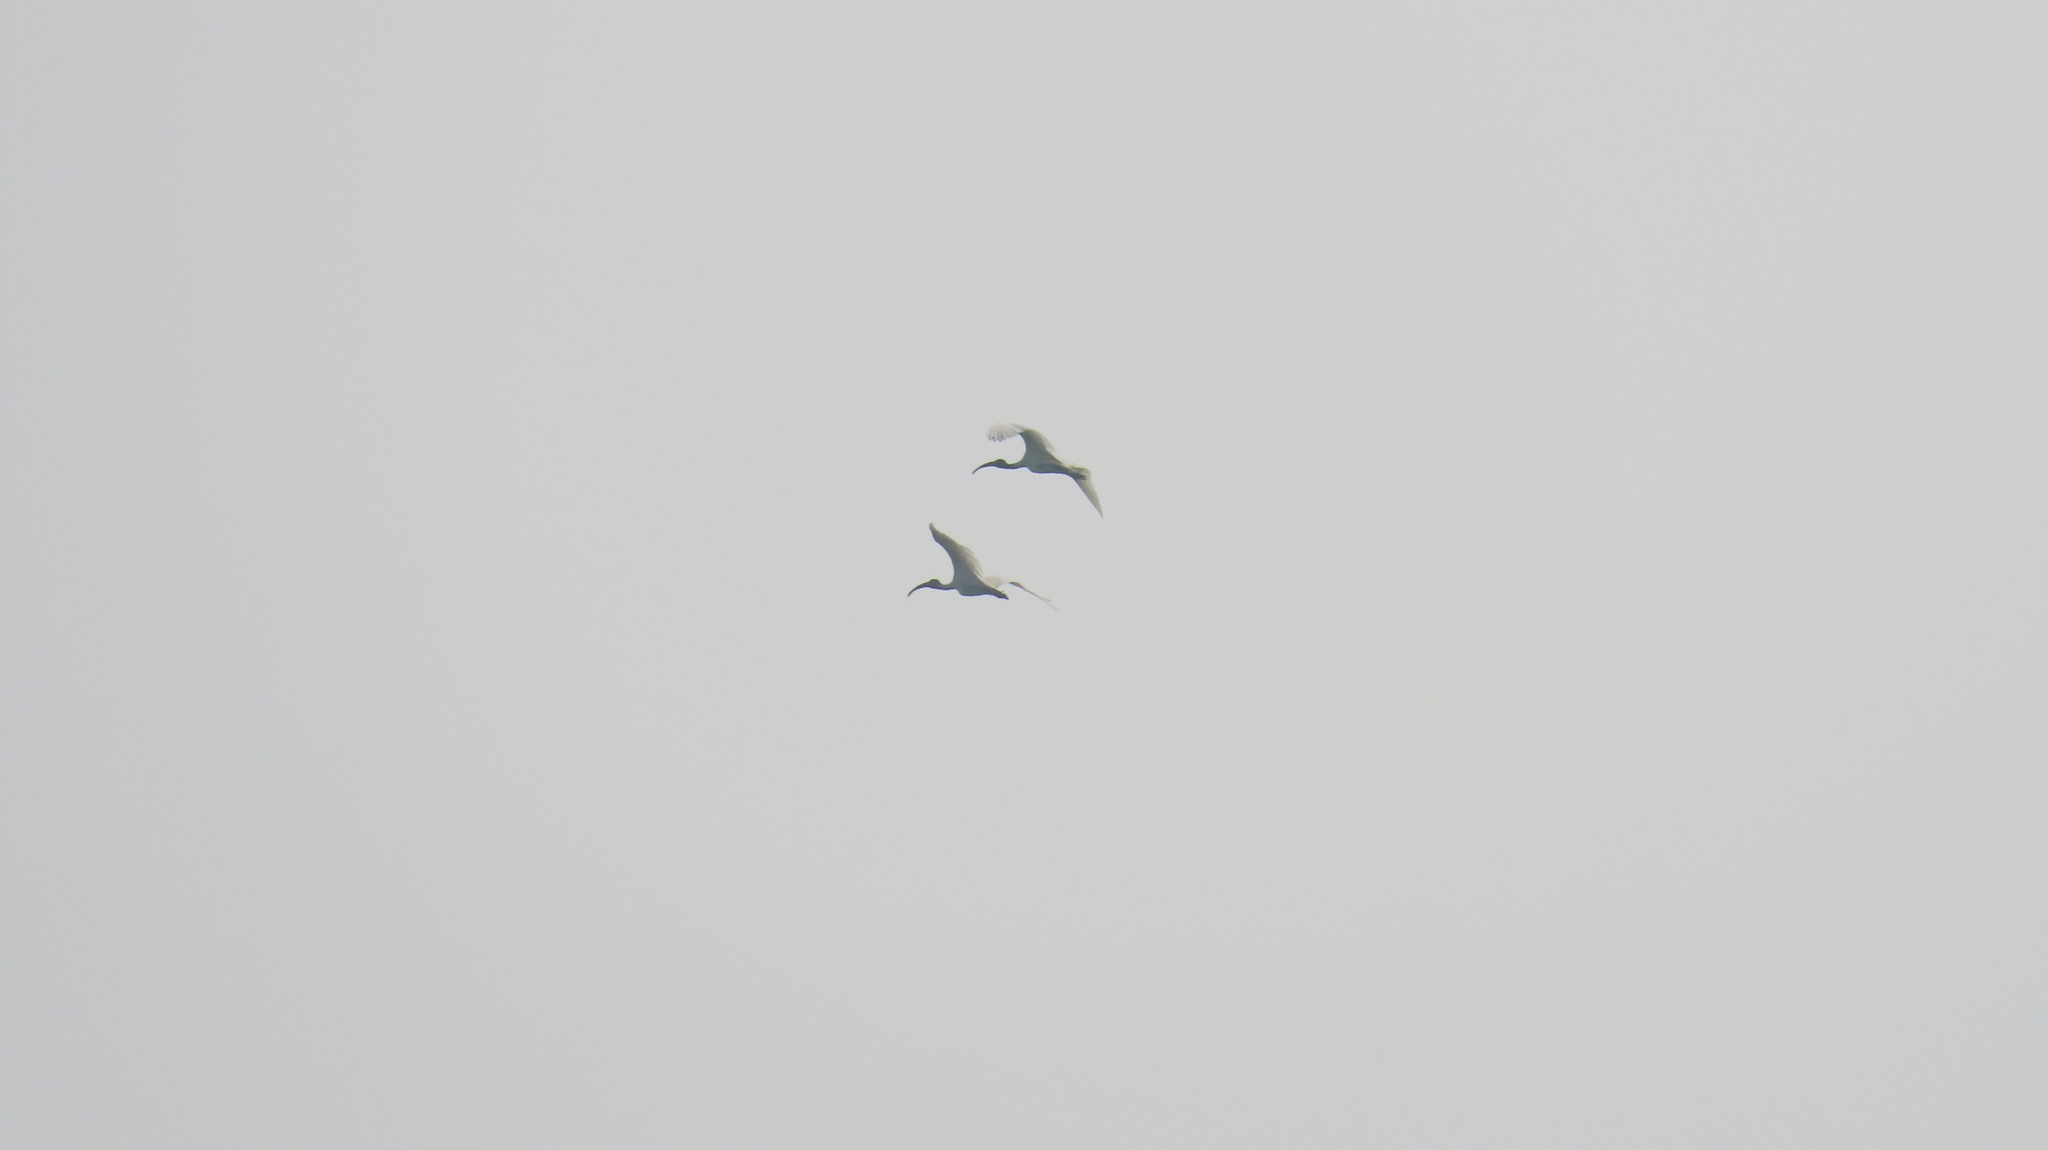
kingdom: Animalia
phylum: Chordata
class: Aves
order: Pelecaniformes
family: Threskiornithidae
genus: Threskiornis
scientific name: Threskiornis melanocephalus
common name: Black-headed ibis
